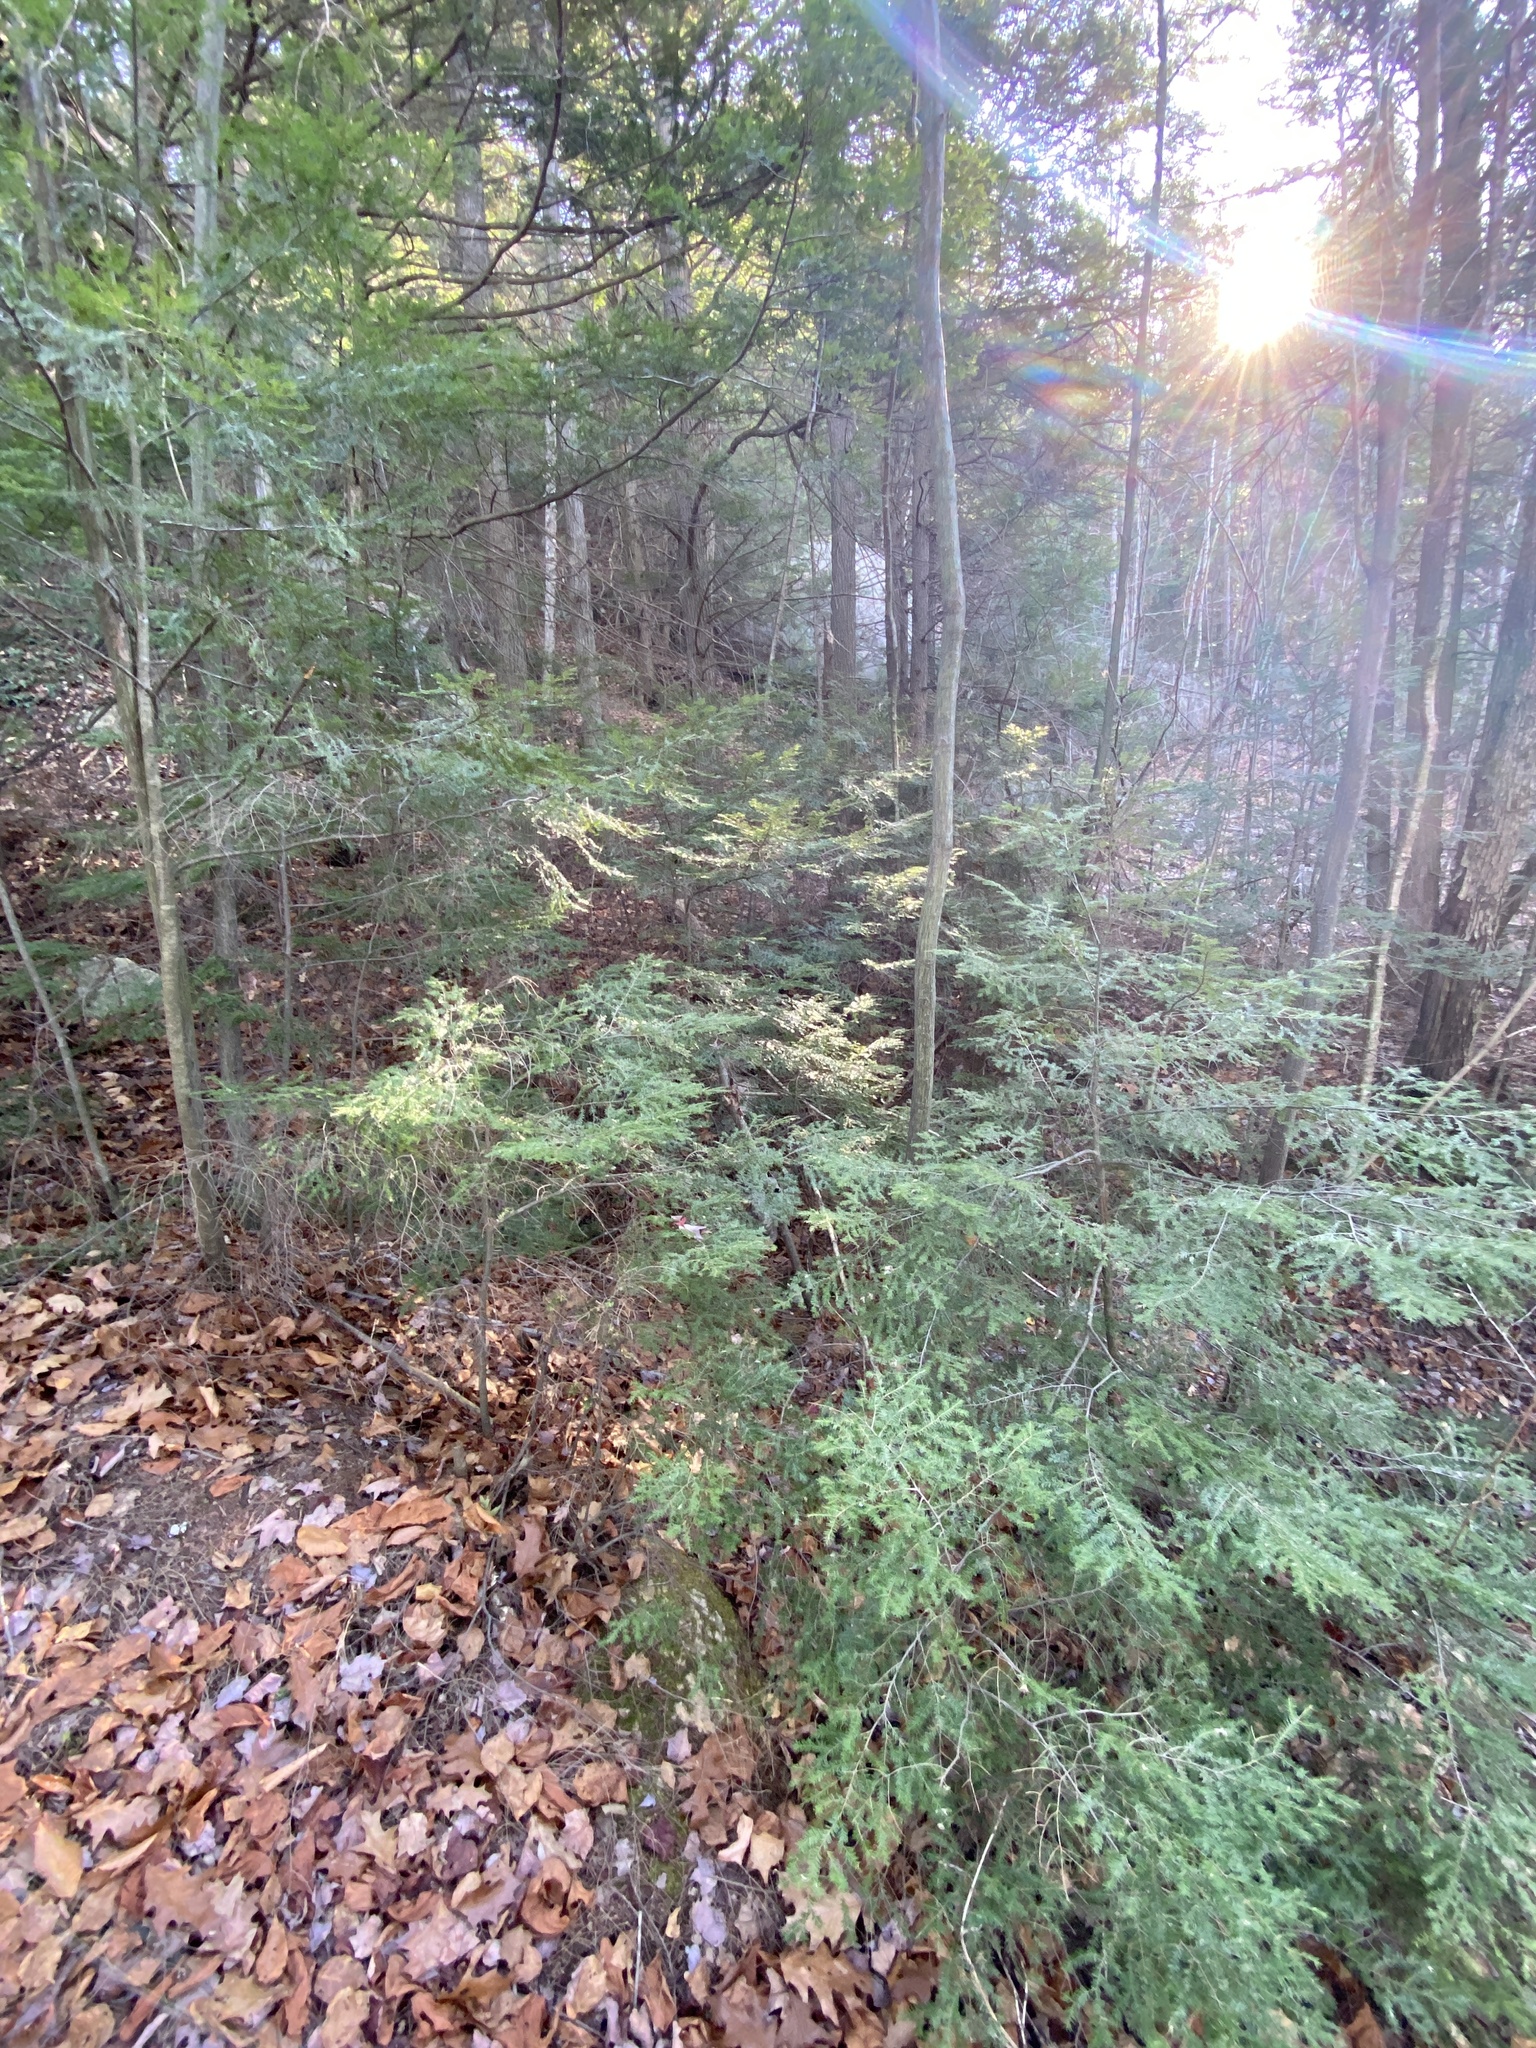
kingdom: Plantae
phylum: Tracheophyta
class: Pinopsida
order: Pinales
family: Pinaceae
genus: Tsuga
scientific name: Tsuga canadensis
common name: Eastern hemlock
